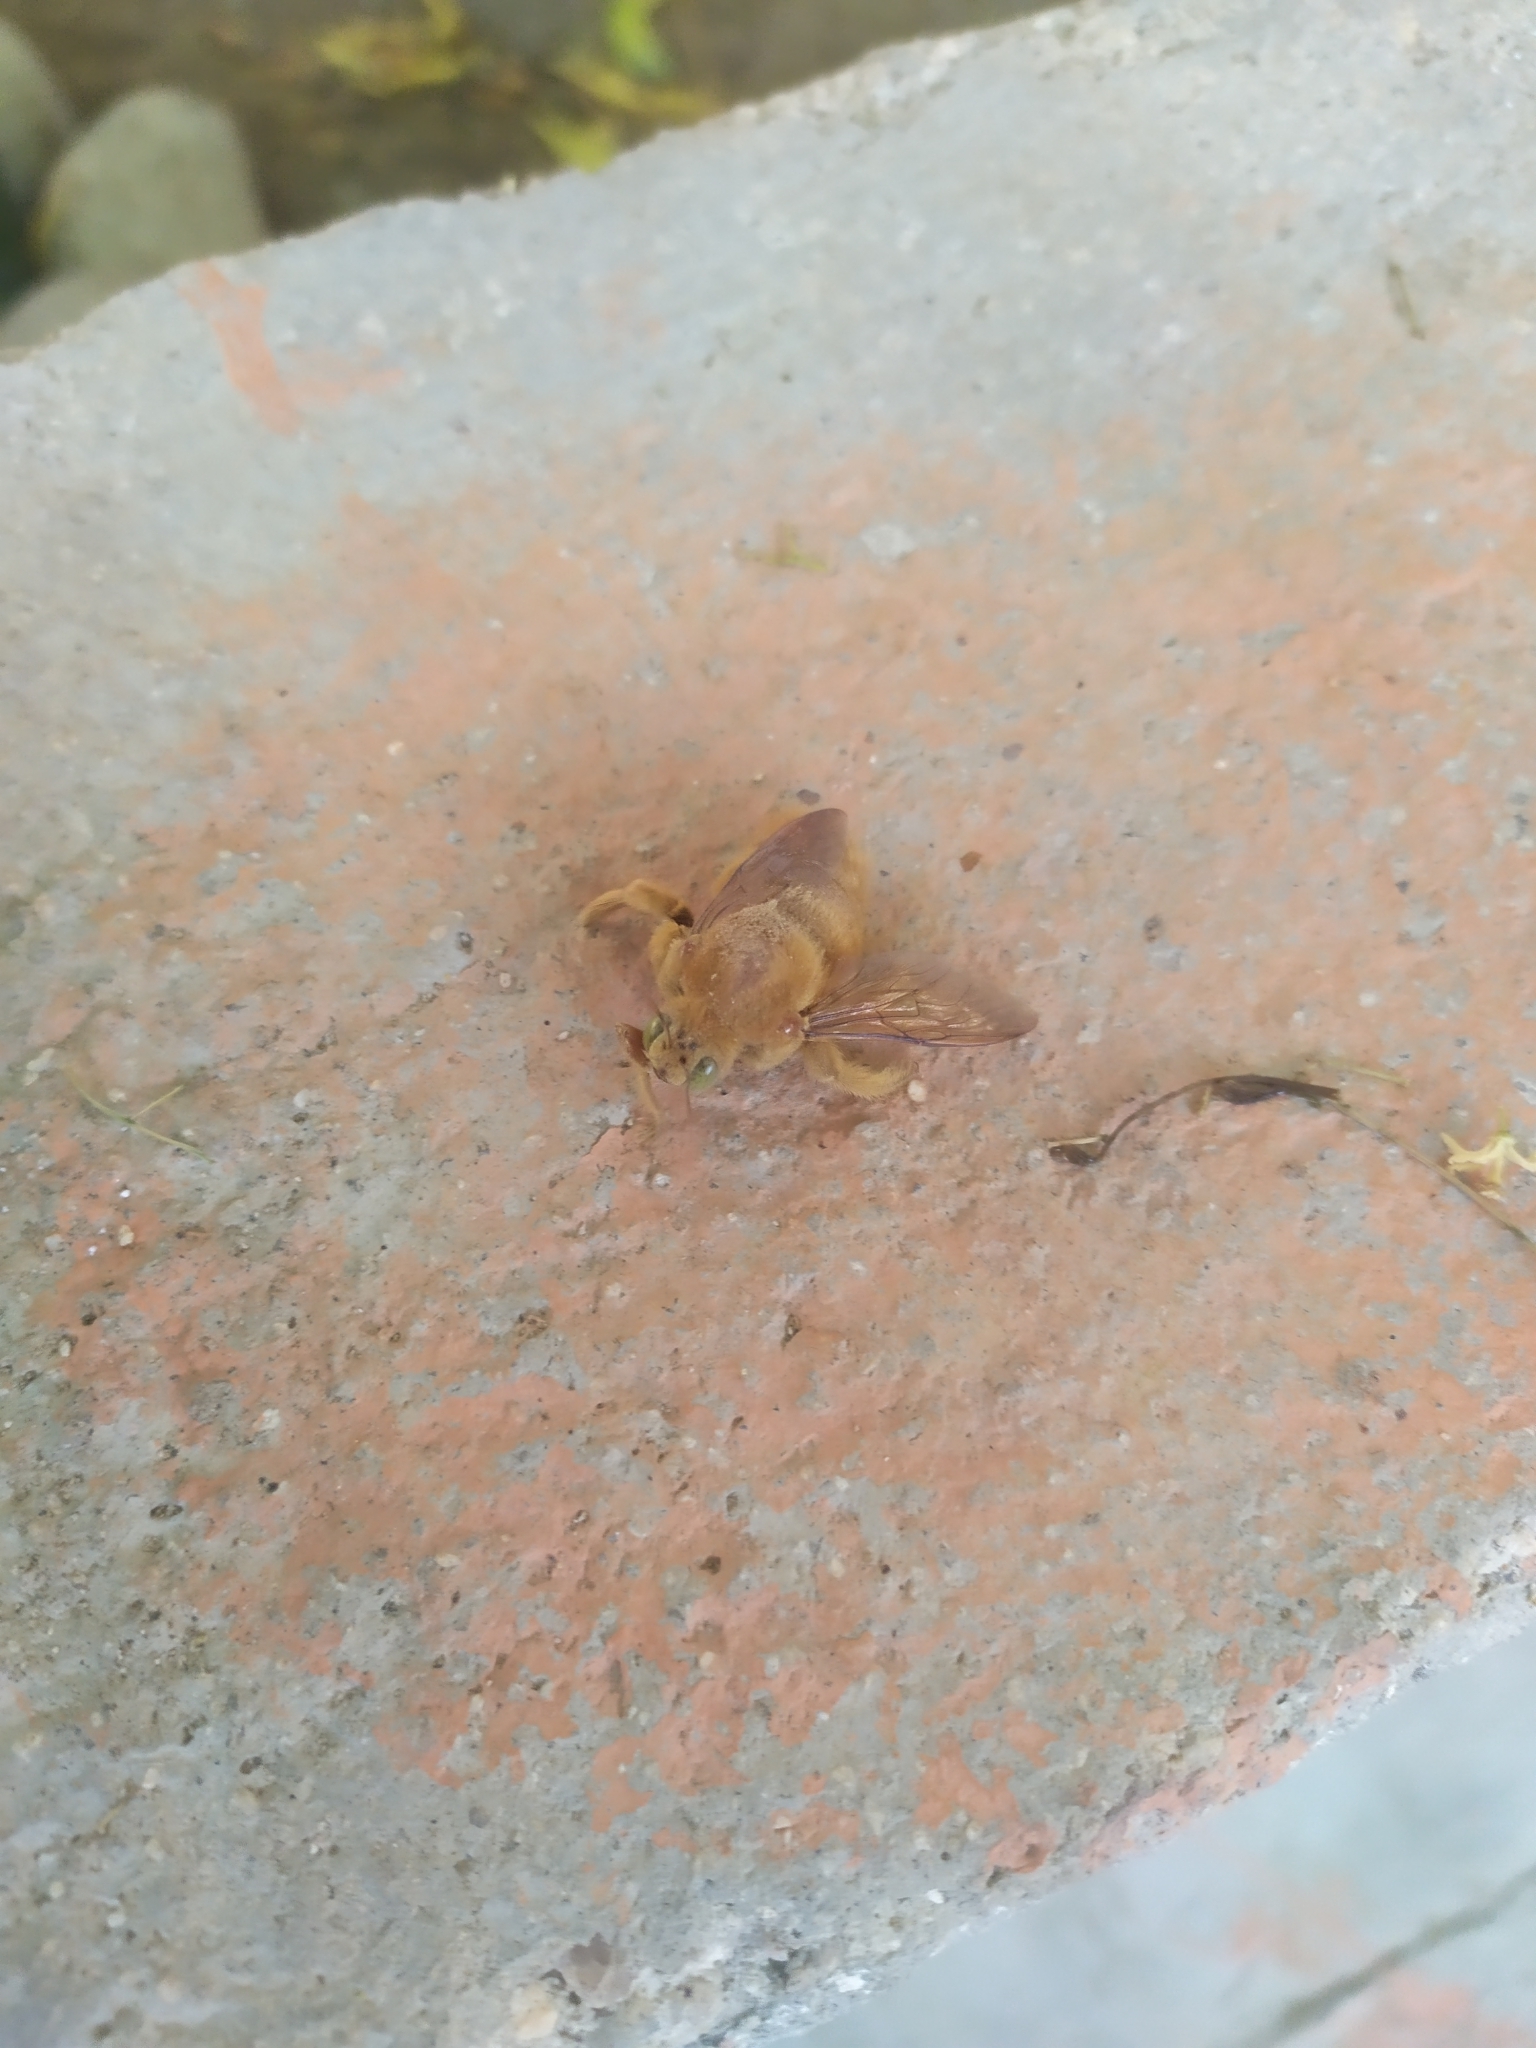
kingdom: Animalia
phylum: Arthropoda
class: Insecta
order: Hymenoptera
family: Apidae
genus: Xylocopa
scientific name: Xylocopa sonorina
